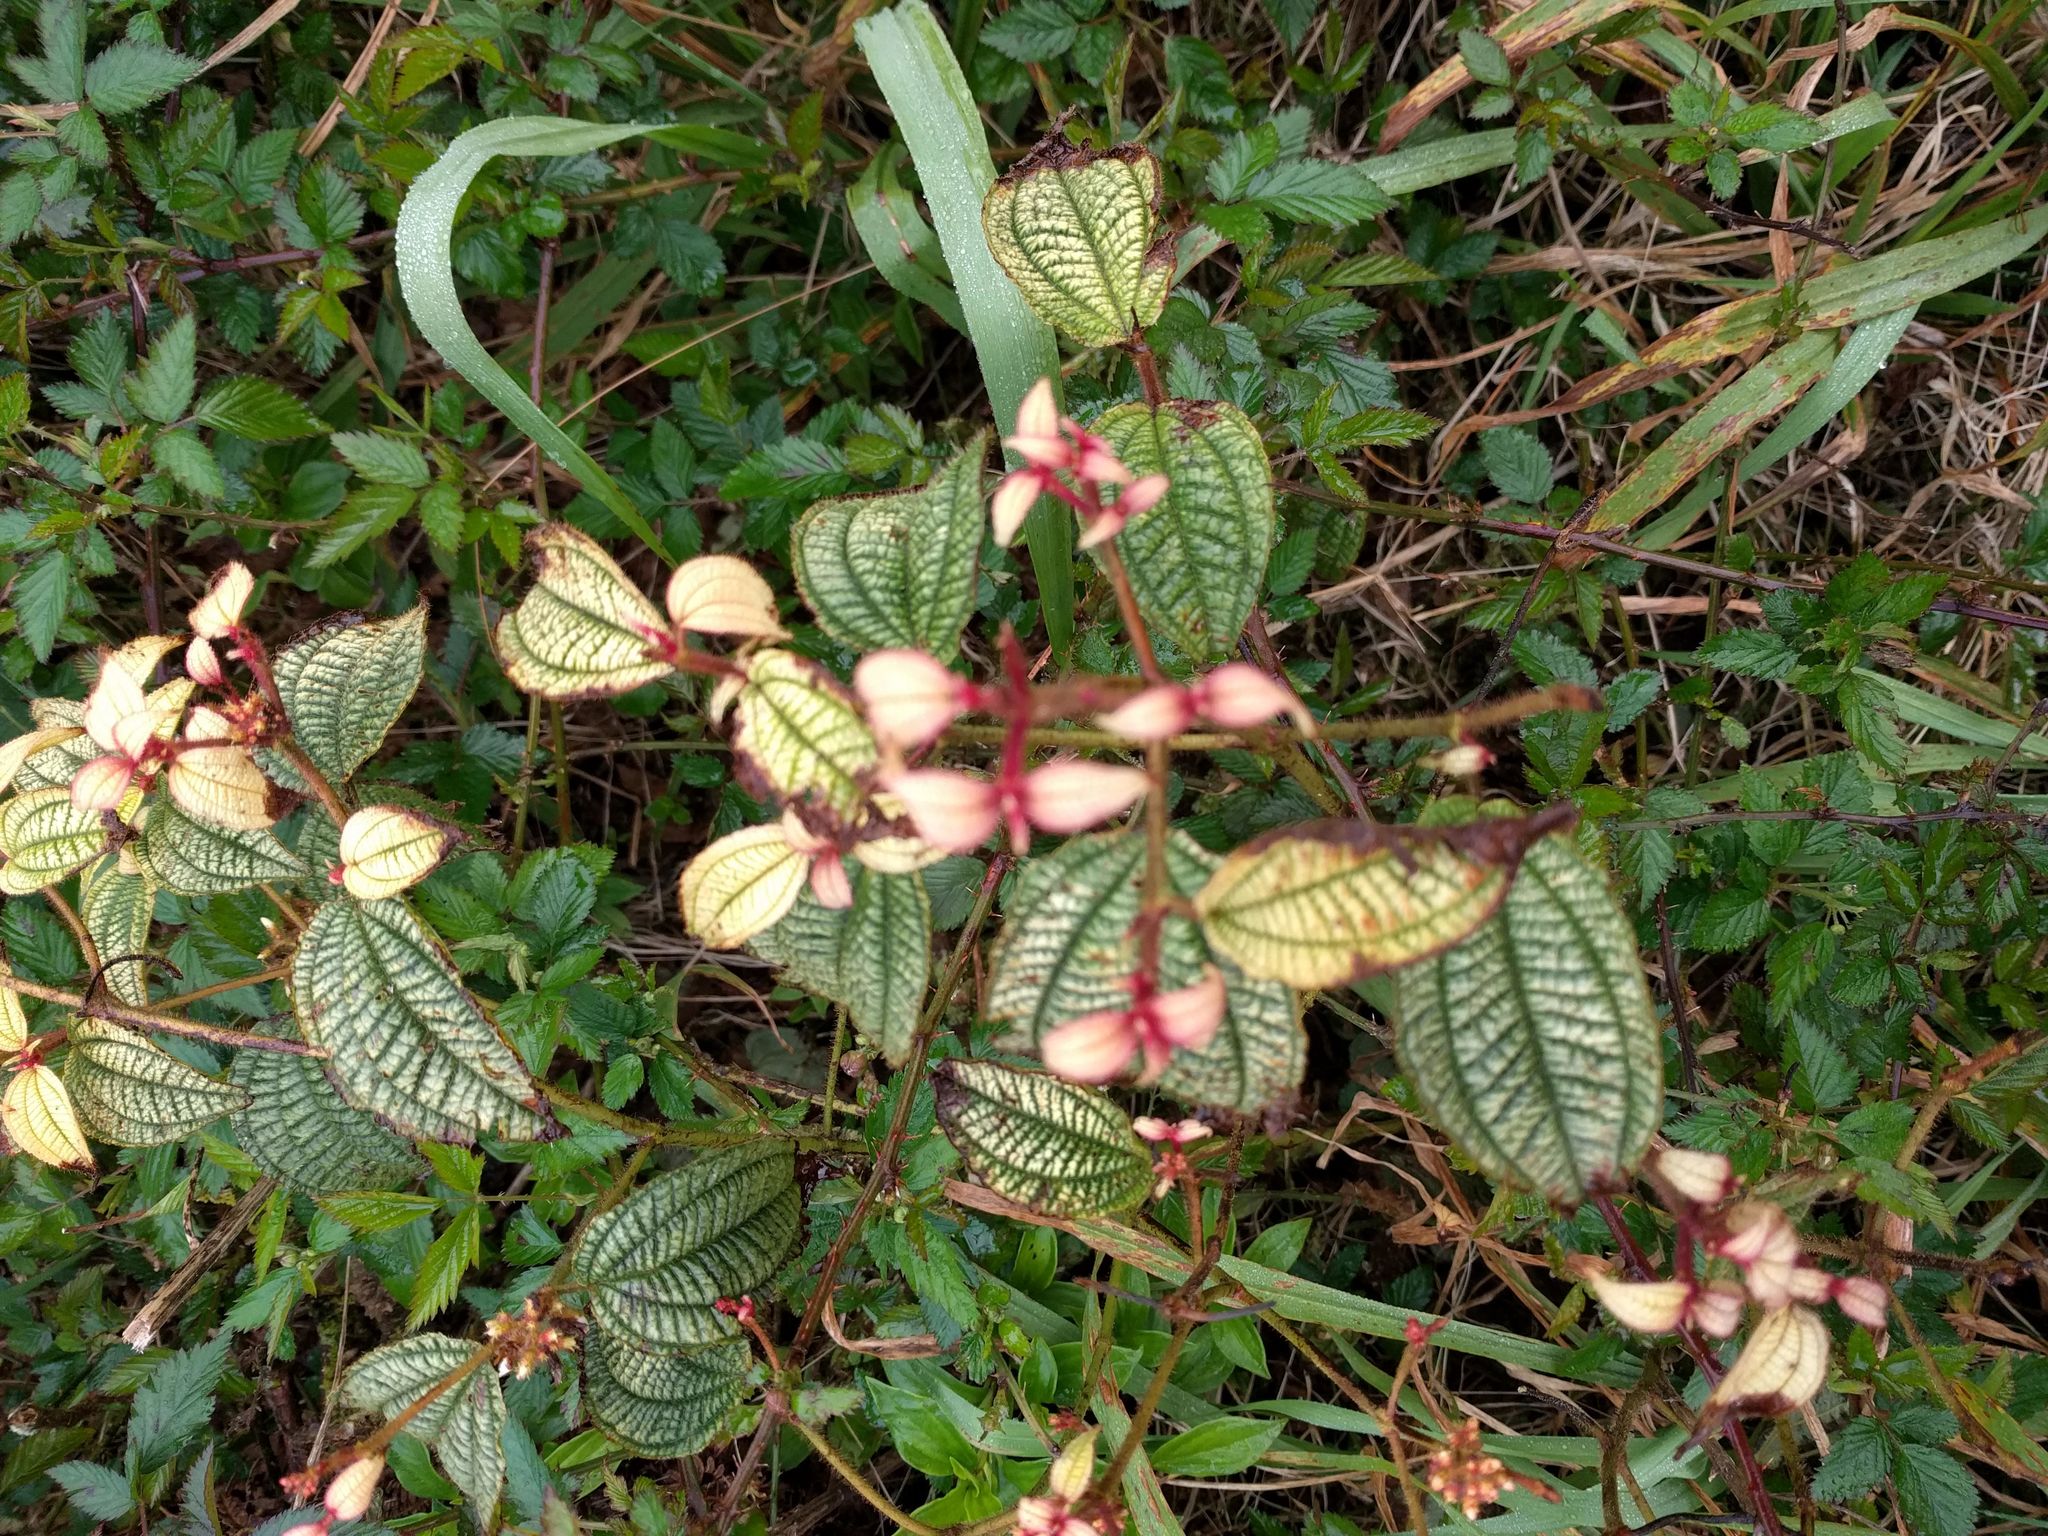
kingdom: Plantae
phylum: Tracheophyta
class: Magnoliopsida
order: Myrtales
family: Melastomataceae
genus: Miconia
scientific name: Miconia crenata
